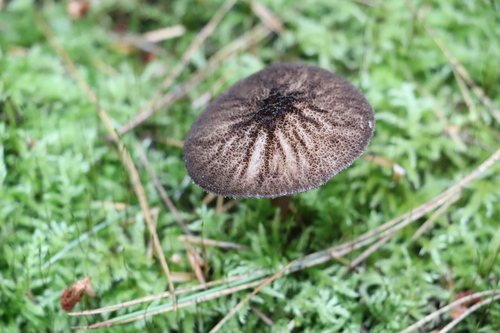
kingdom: Fungi
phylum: Basidiomycota
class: Agaricomycetes
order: Agaricales
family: Pluteaceae
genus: Pluteus
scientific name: Pluteus umbrosus
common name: Velvet shield
